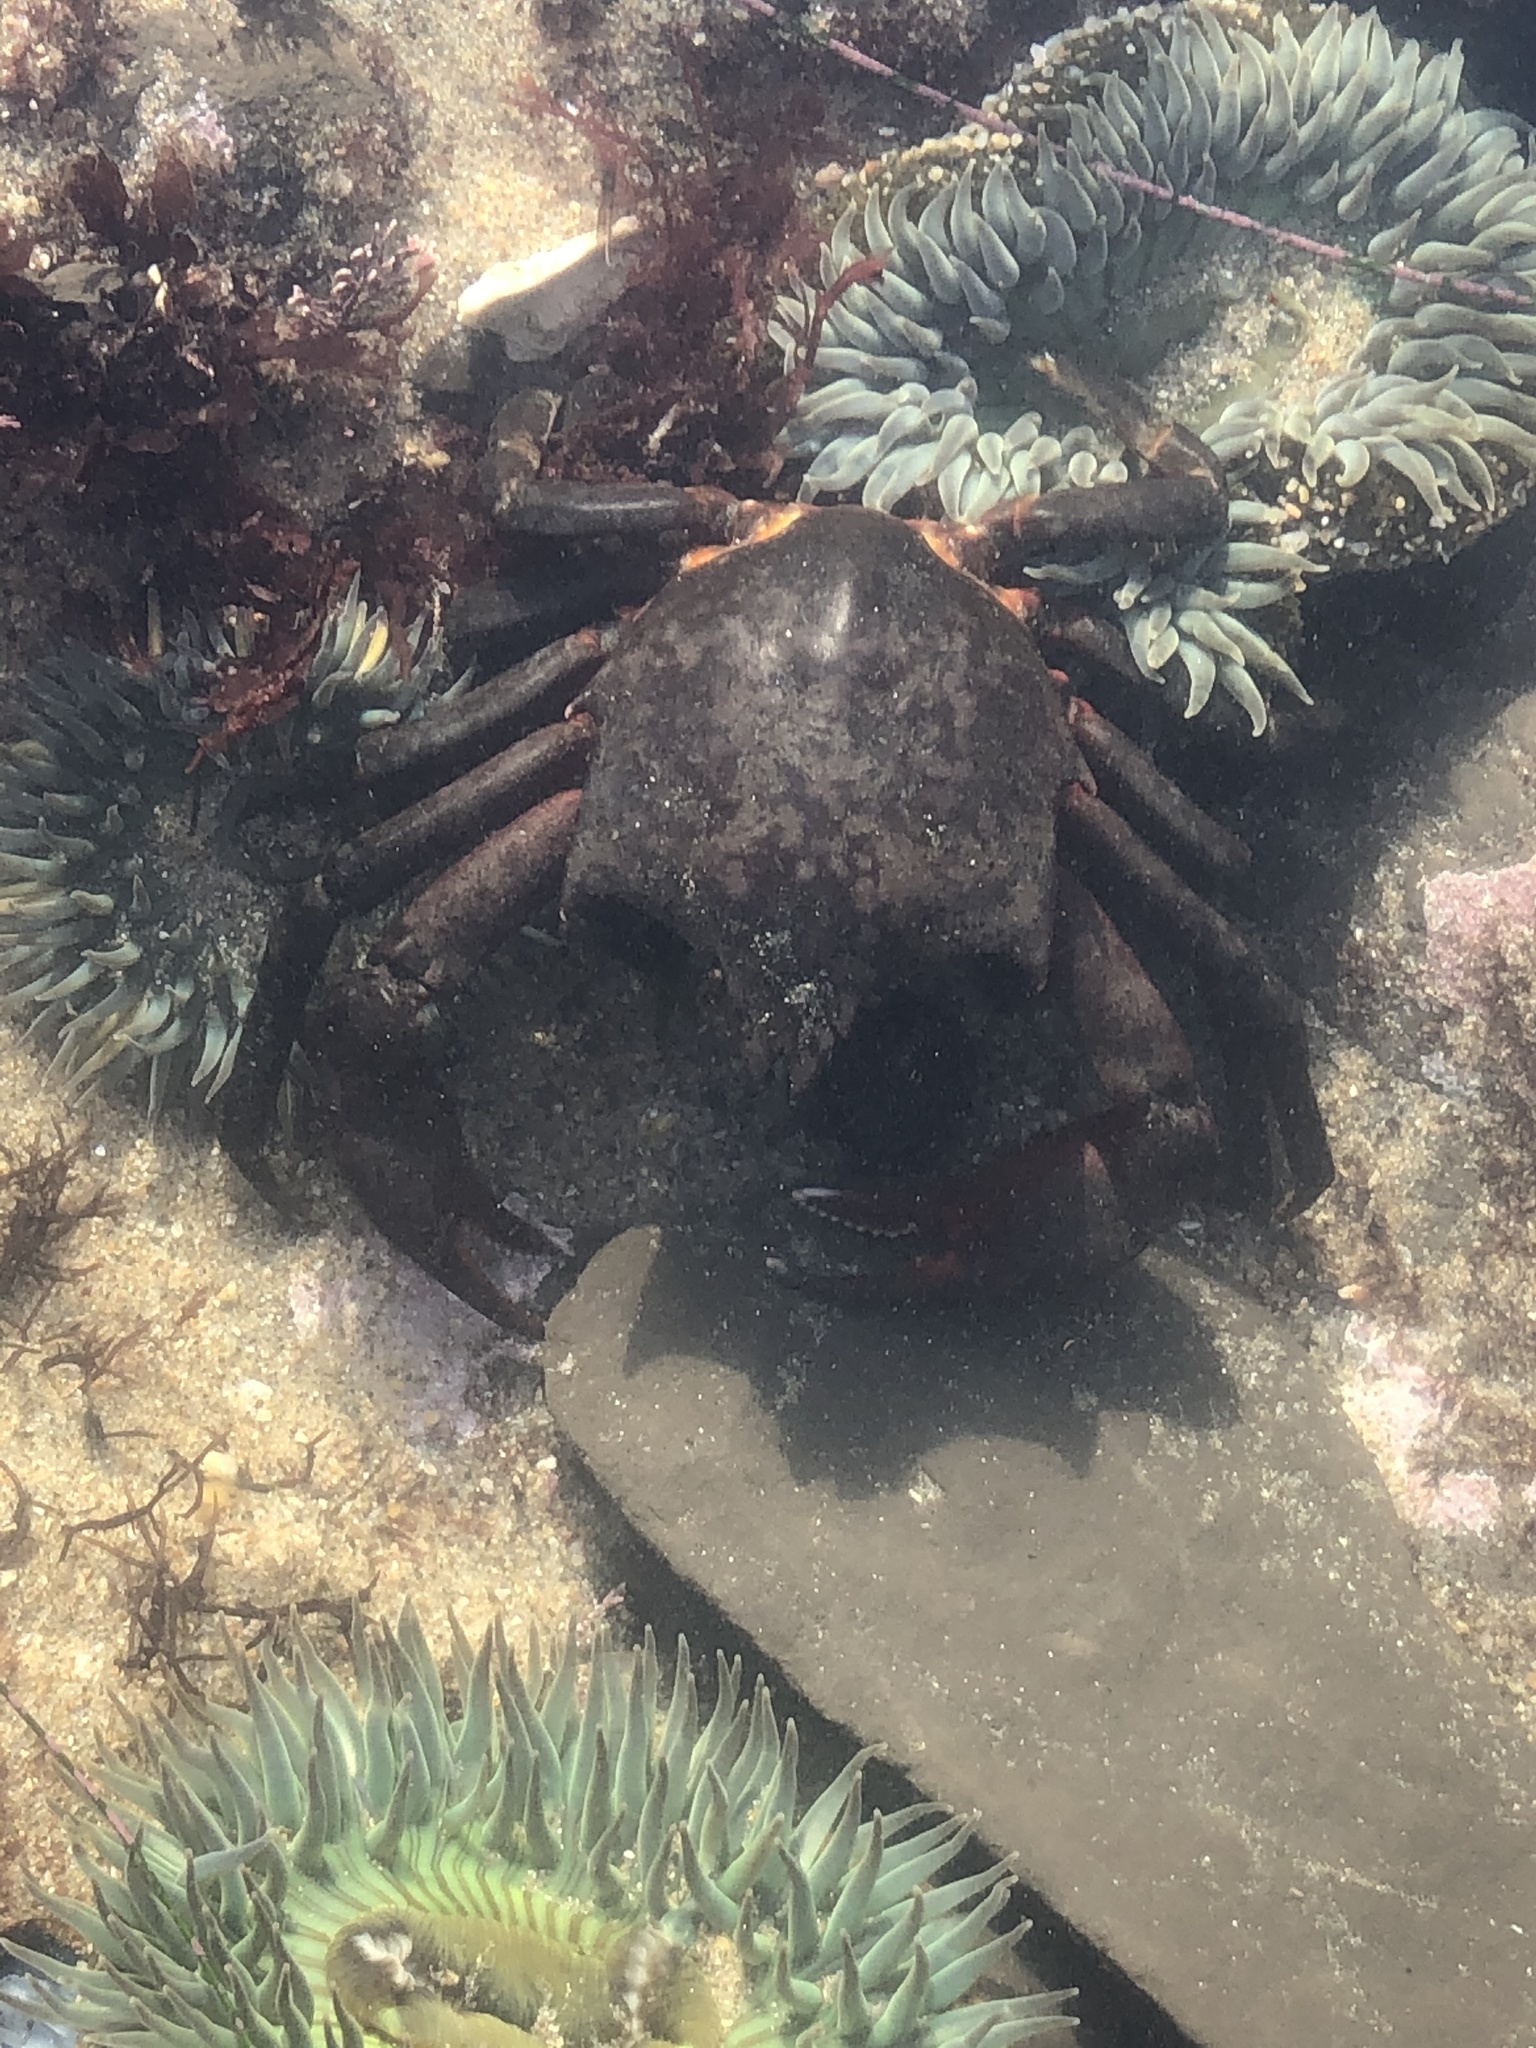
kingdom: Animalia
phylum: Arthropoda
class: Malacostraca
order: Decapoda
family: Epialtidae
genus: Pugettia
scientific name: Pugettia producta
